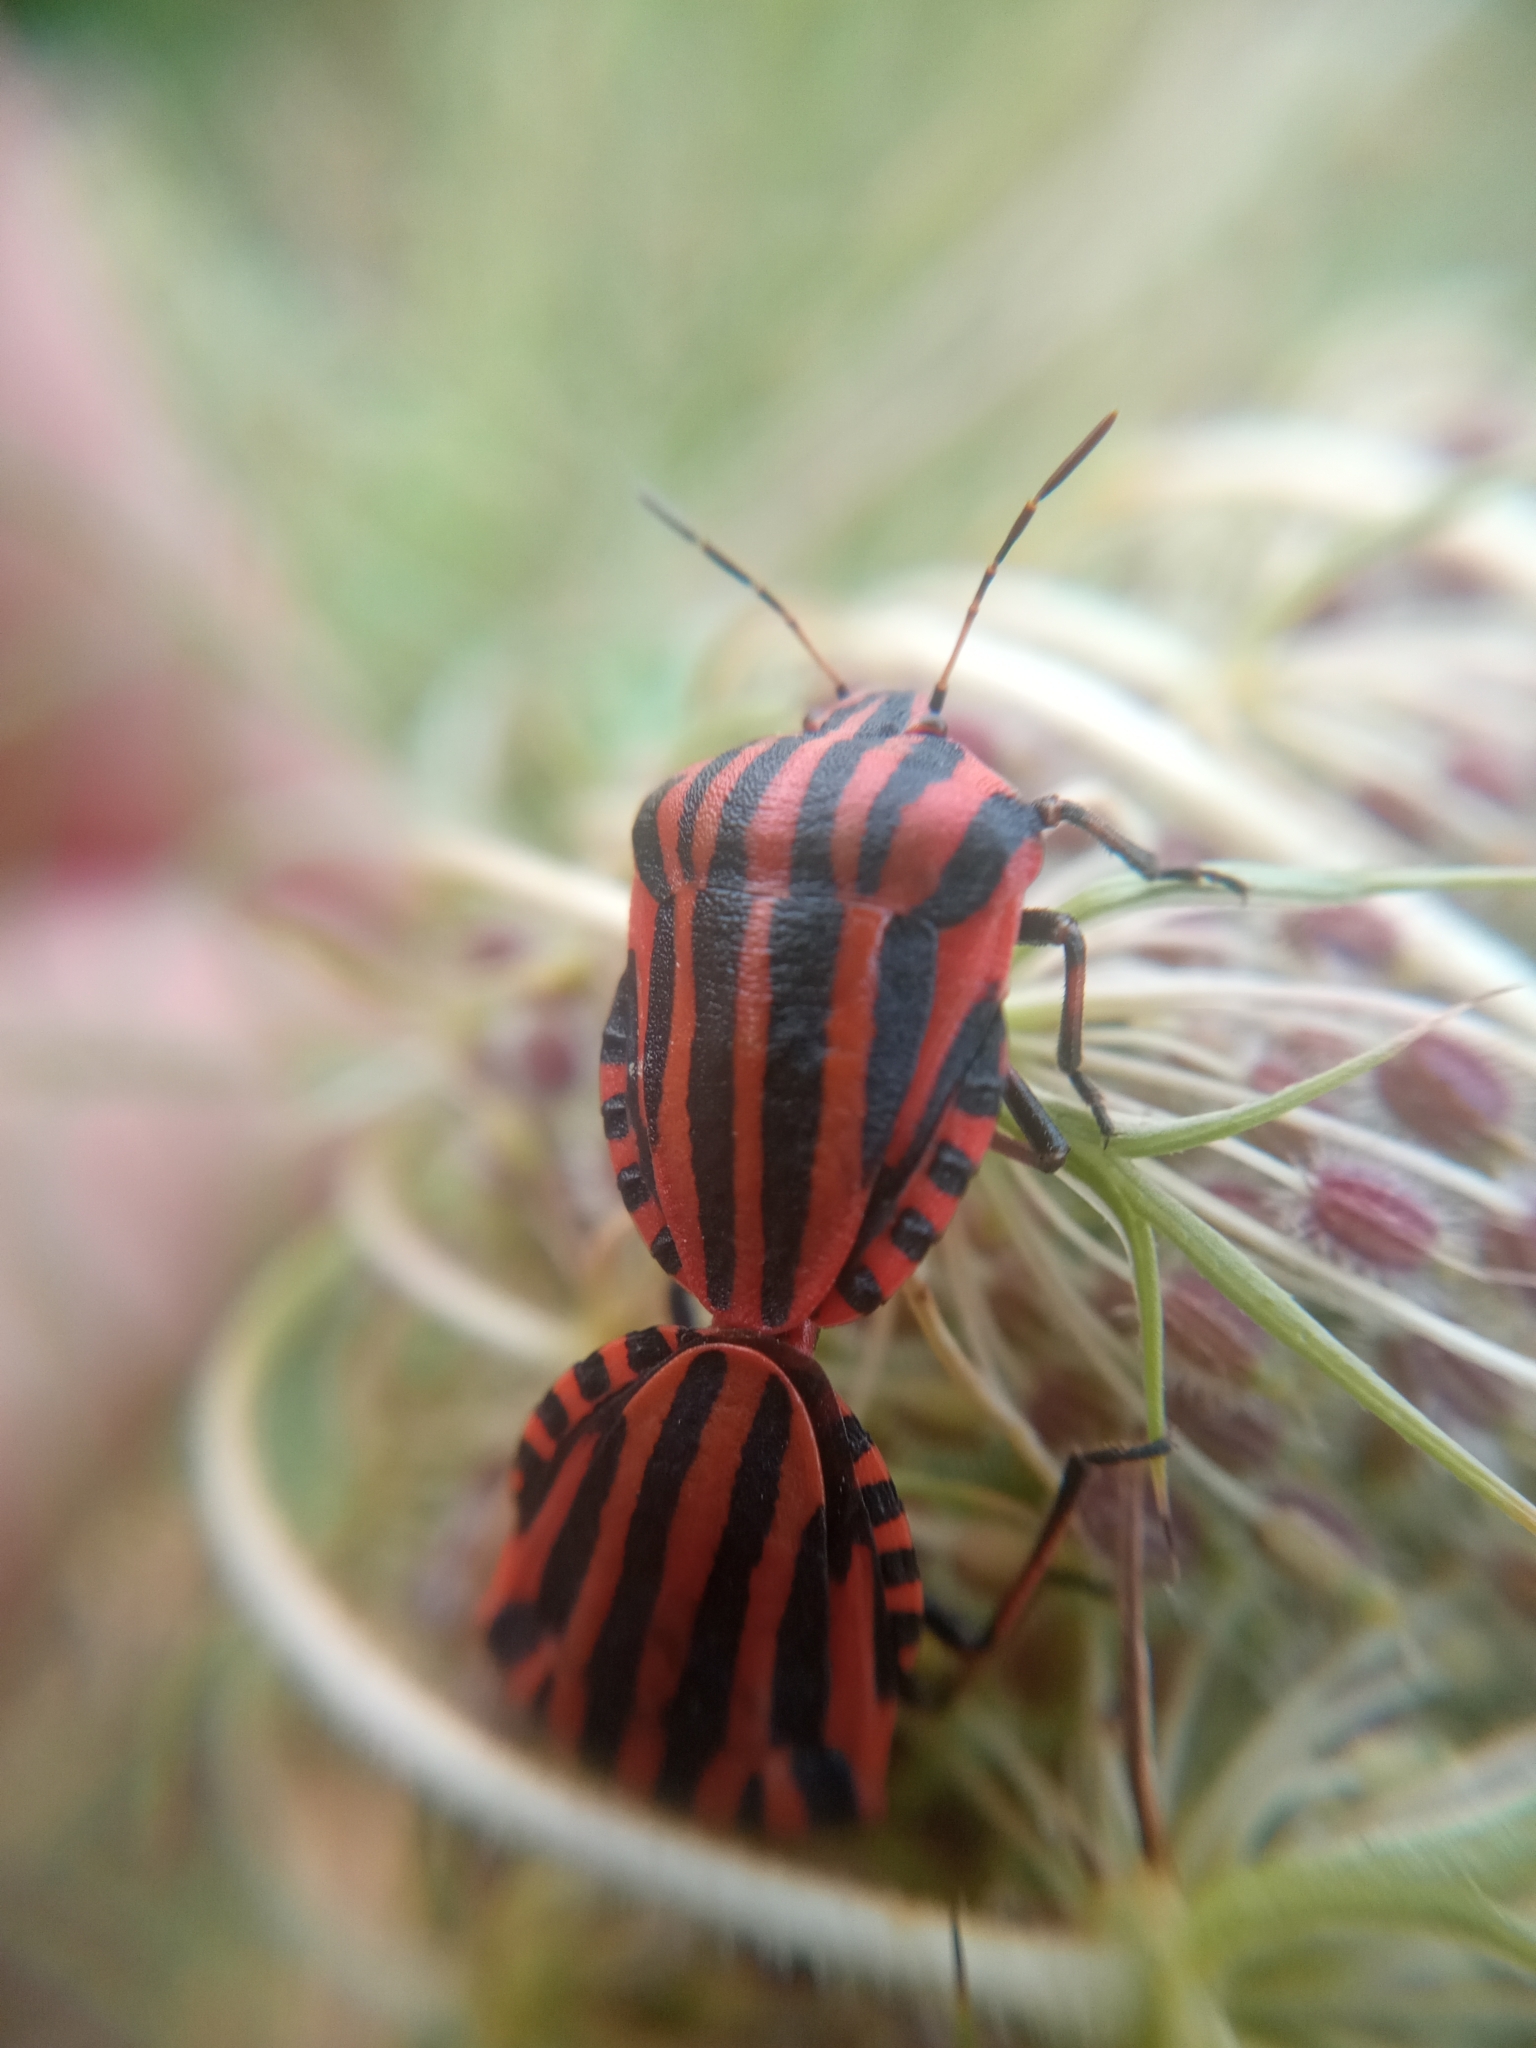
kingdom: Animalia
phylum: Arthropoda
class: Insecta
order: Hemiptera
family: Pentatomidae
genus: Graphosoma
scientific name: Graphosoma italicum
